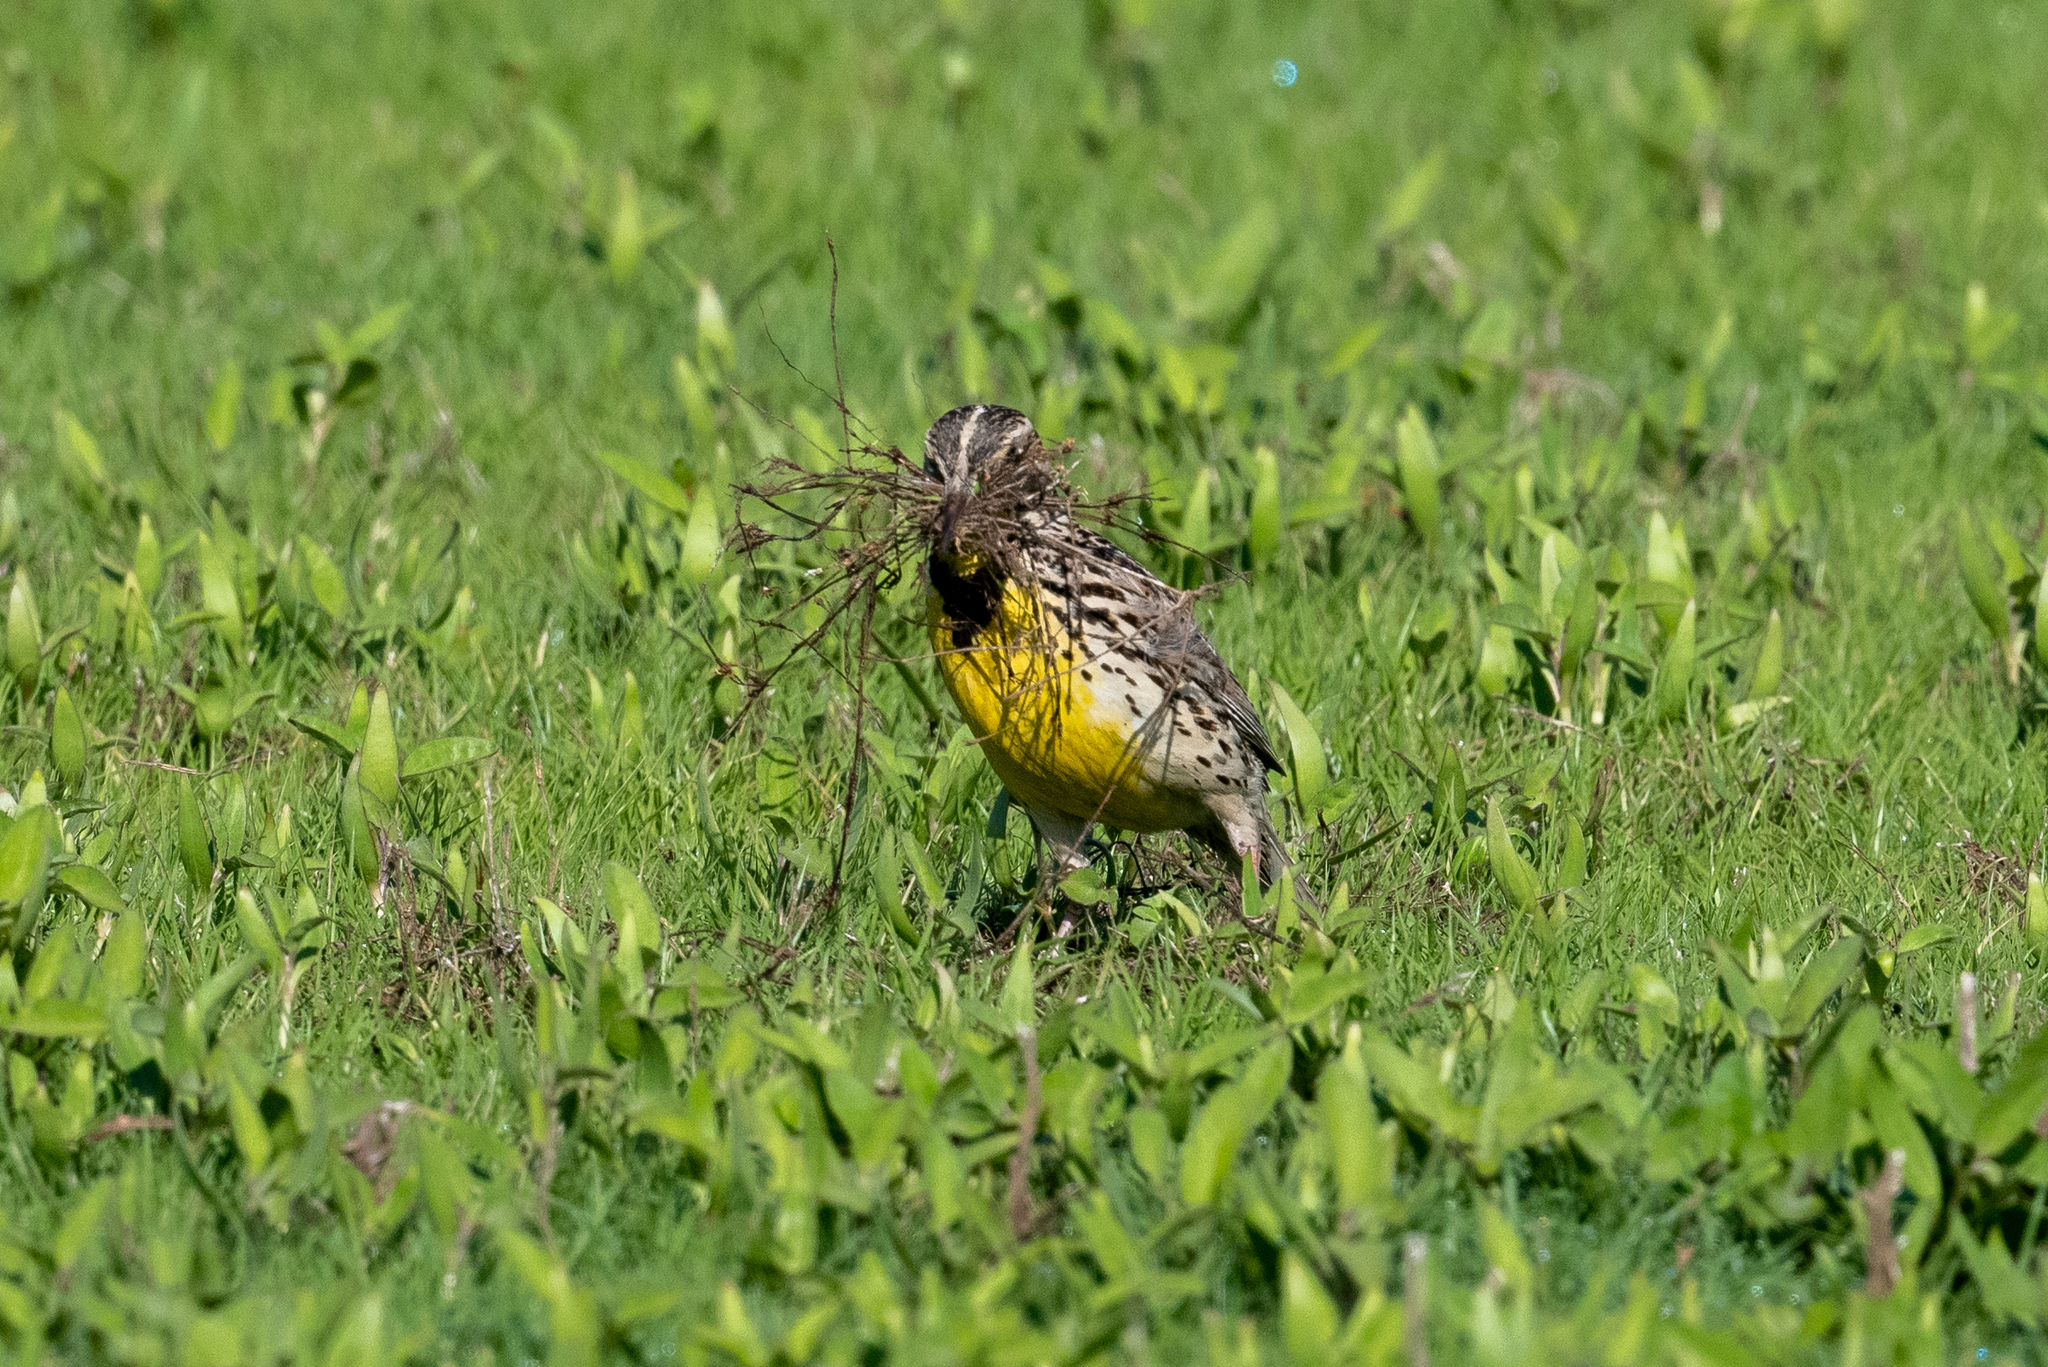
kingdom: Animalia
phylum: Chordata
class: Aves
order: Passeriformes
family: Icteridae
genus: Sturnella
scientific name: Sturnella neglecta
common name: Western meadowlark
